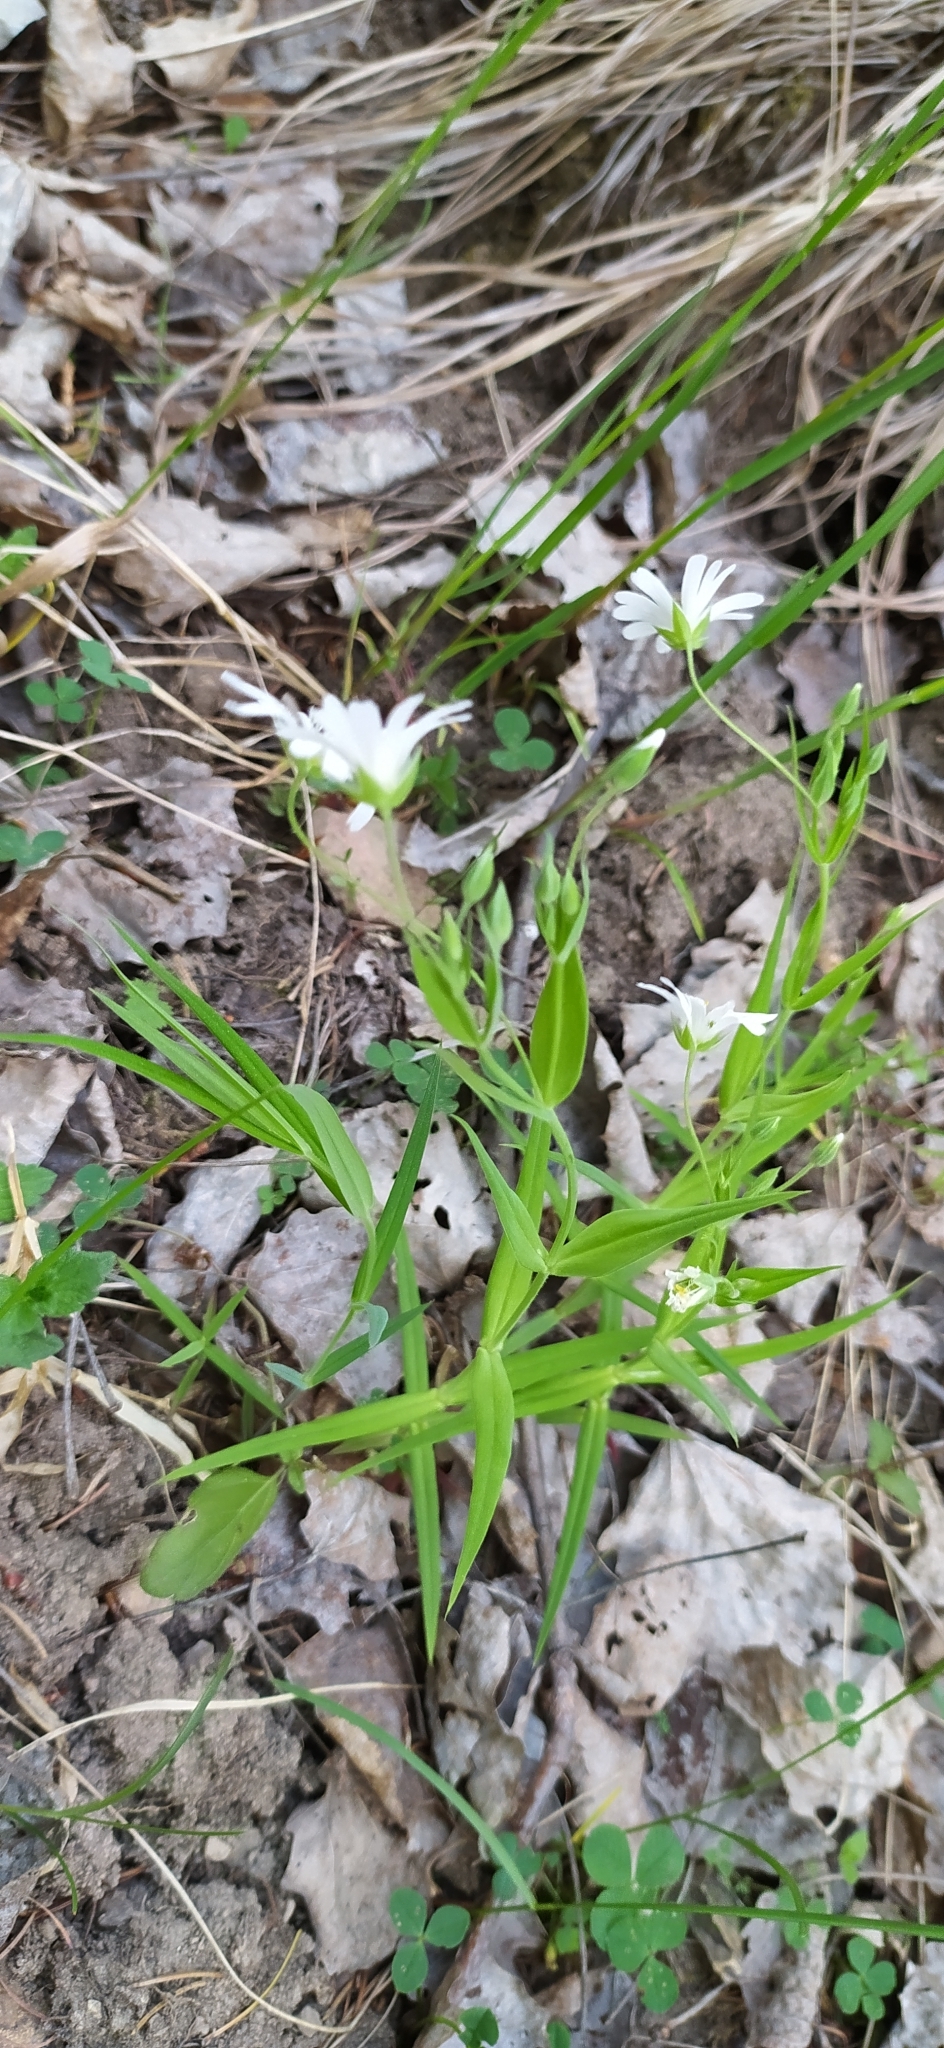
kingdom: Plantae
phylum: Tracheophyta
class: Magnoliopsida
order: Caryophyllales
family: Caryophyllaceae
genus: Rabelera
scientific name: Rabelera holostea
